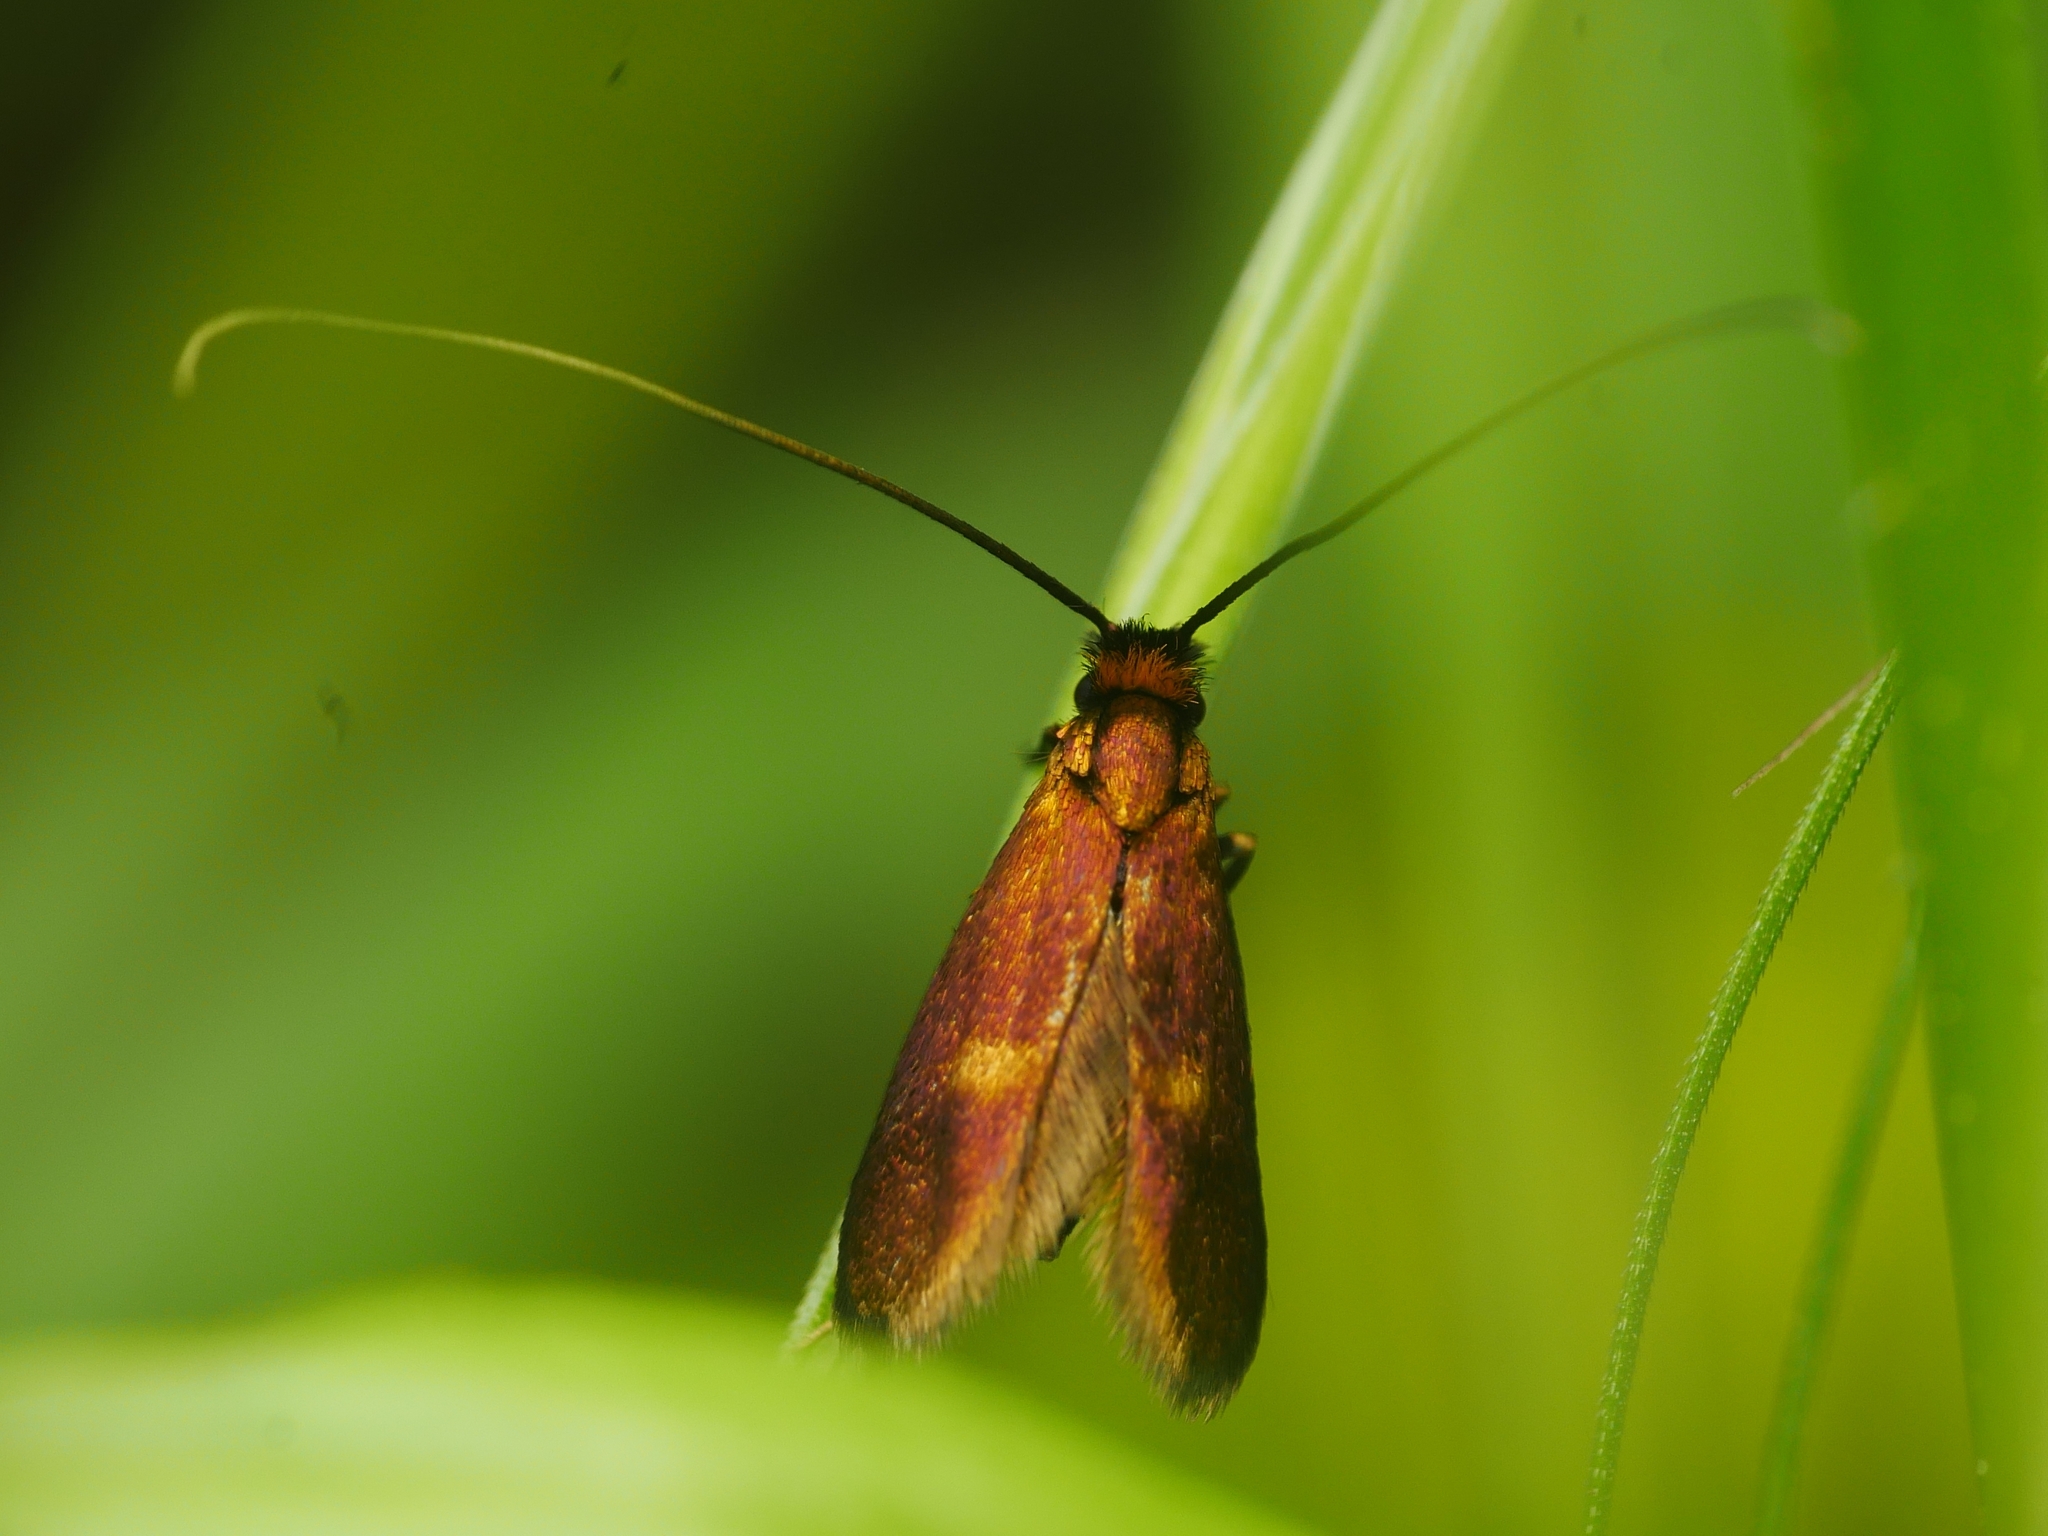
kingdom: Animalia
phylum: Arthropoda
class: Insecta
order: Lepidoptera
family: Adelidae
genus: Cauchas
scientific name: Cauchas rufimitrella
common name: Meadow long-horn
